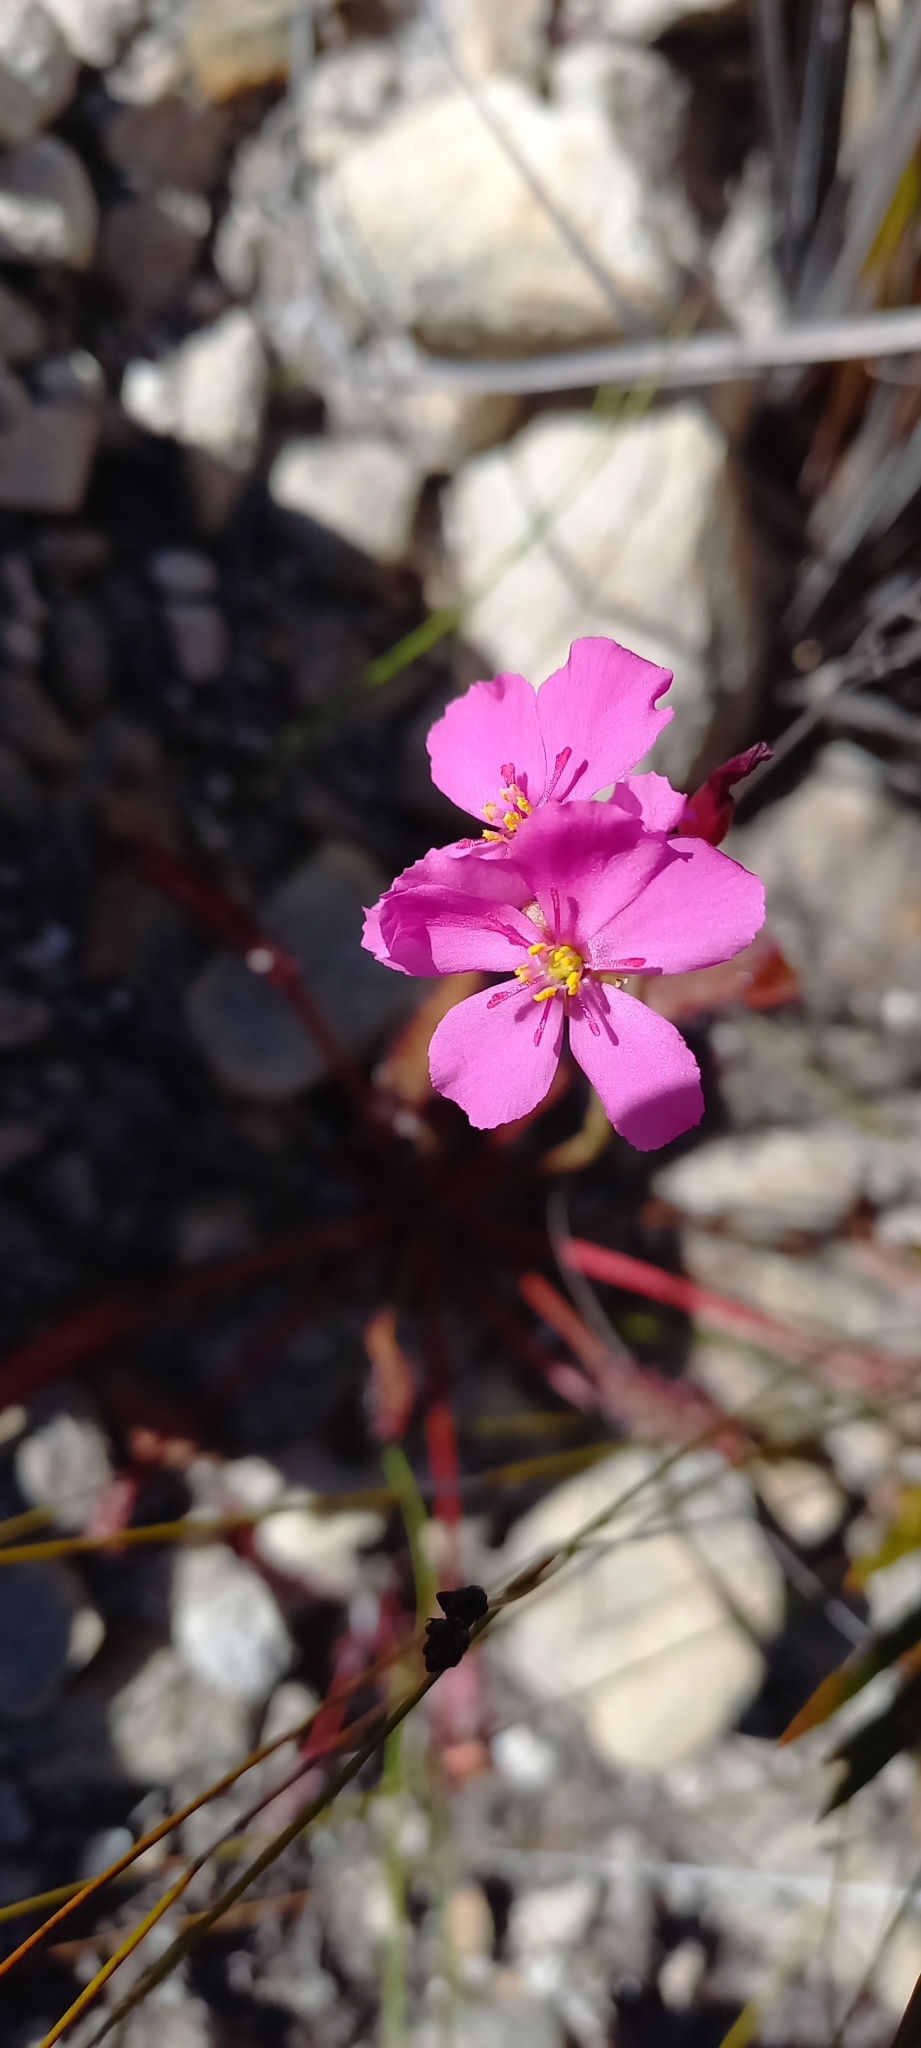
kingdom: Plantae
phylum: Tracheophyta
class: Magnoliopsida
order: Caryophyllales
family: Droseraceae
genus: Drosera
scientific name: Drosera capensis
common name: Cape sundew
